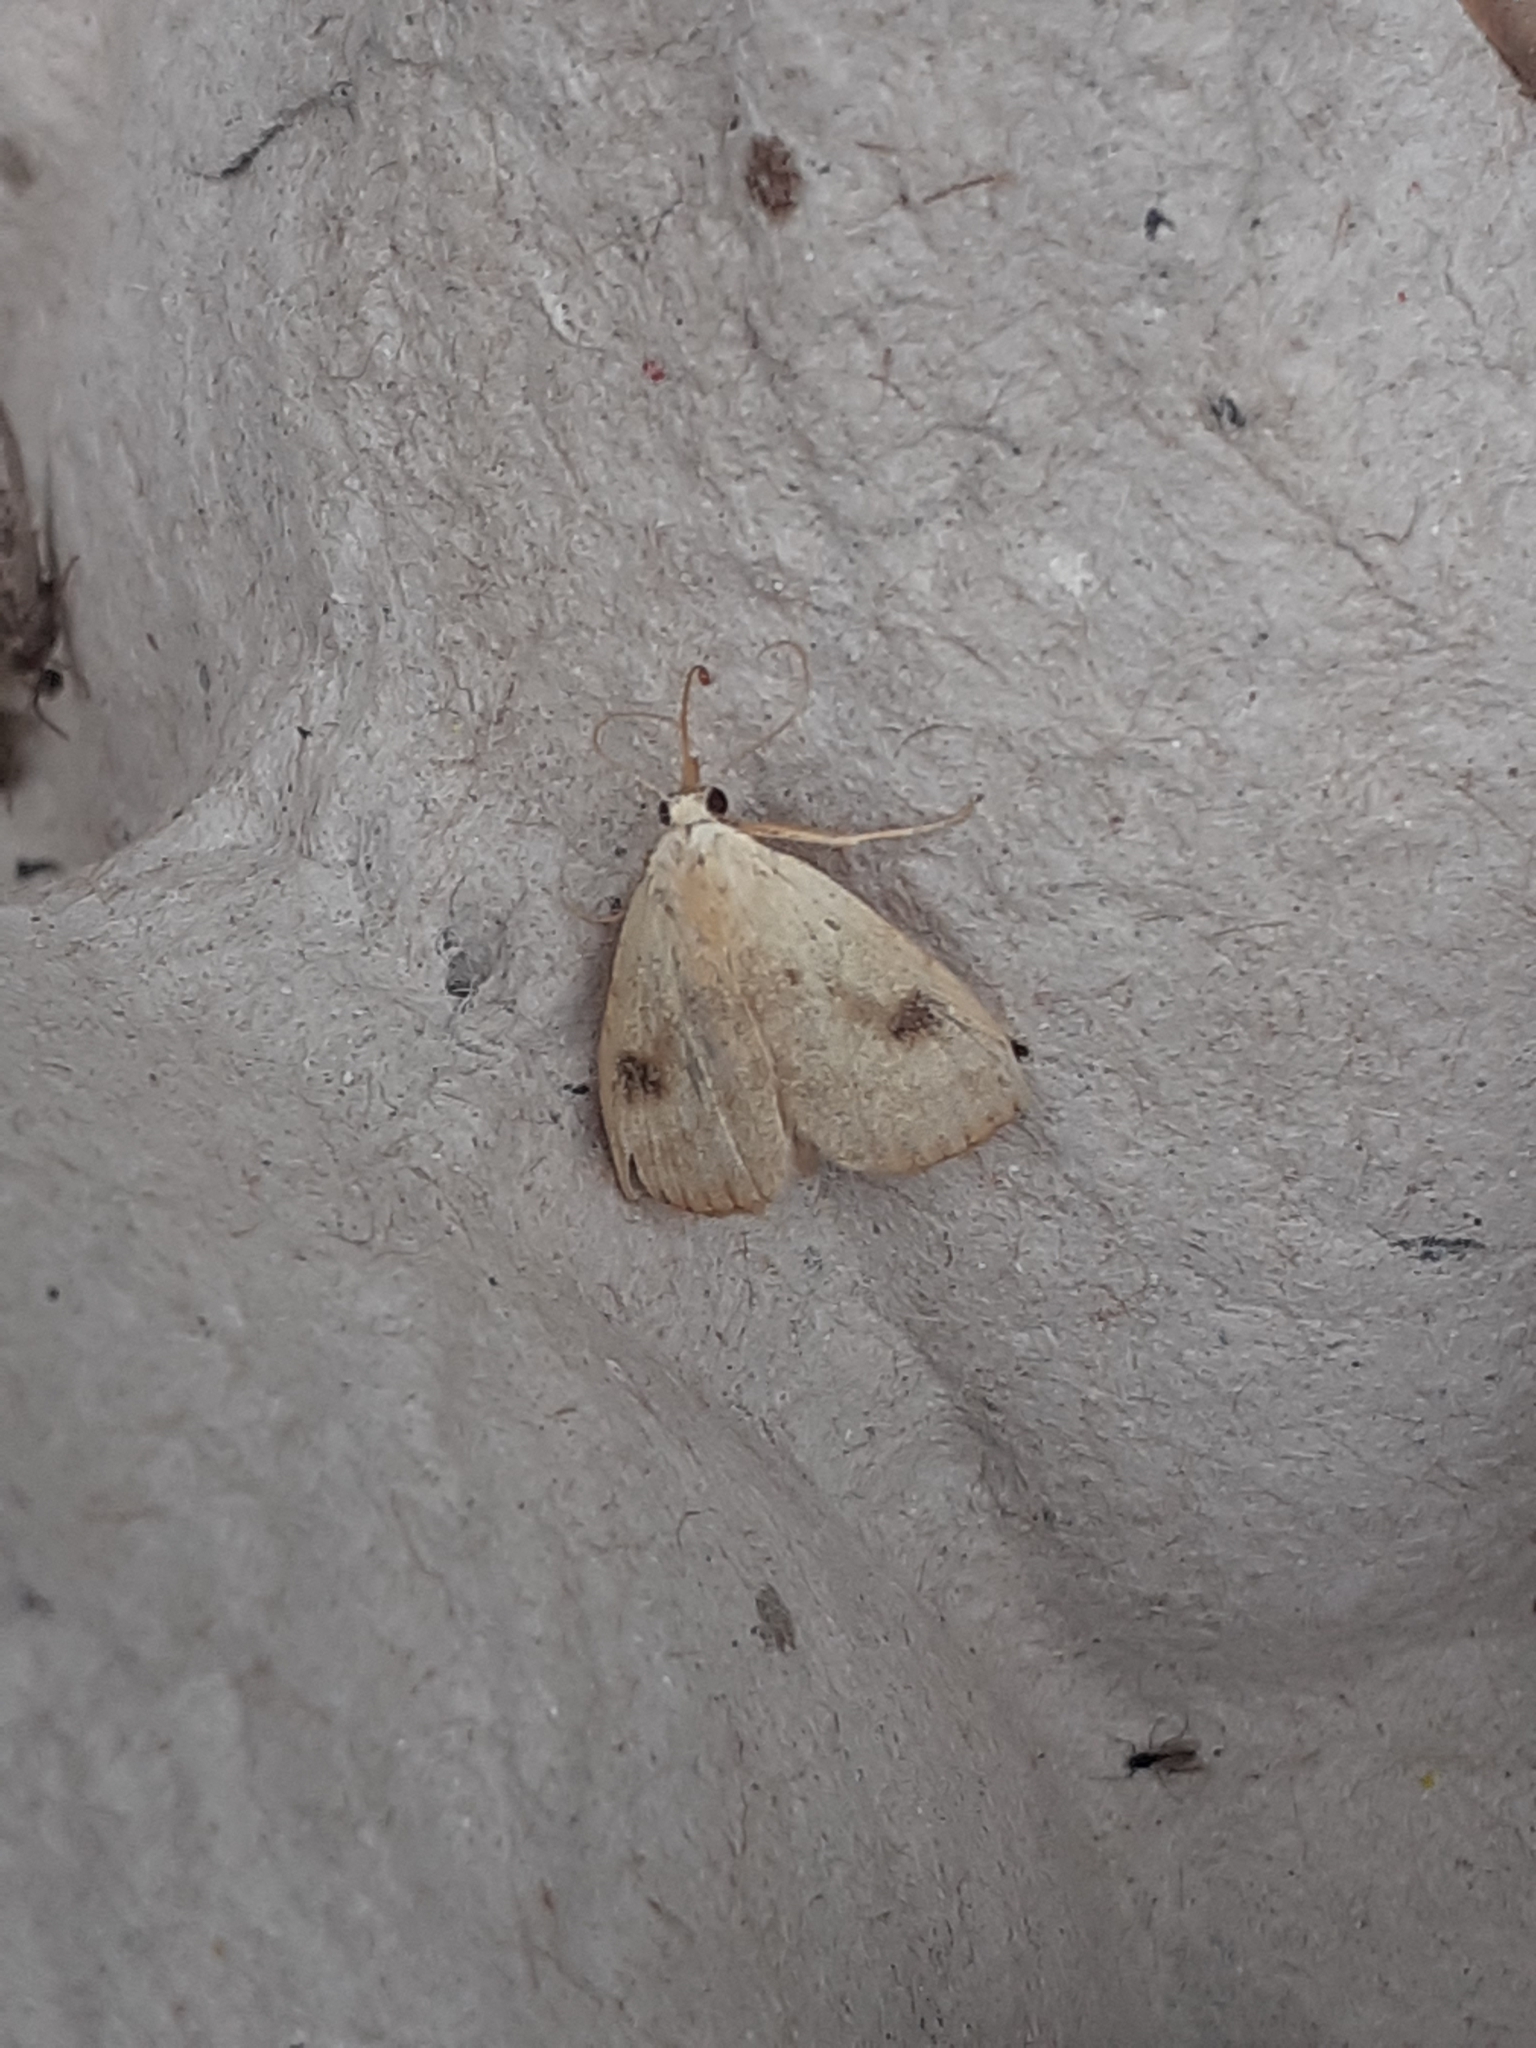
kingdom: Animalia
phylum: Arthropoda
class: Insecta
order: Lepidoptera
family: Erebidae
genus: Rivula
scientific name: Rivula sericealis
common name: Straw dot
